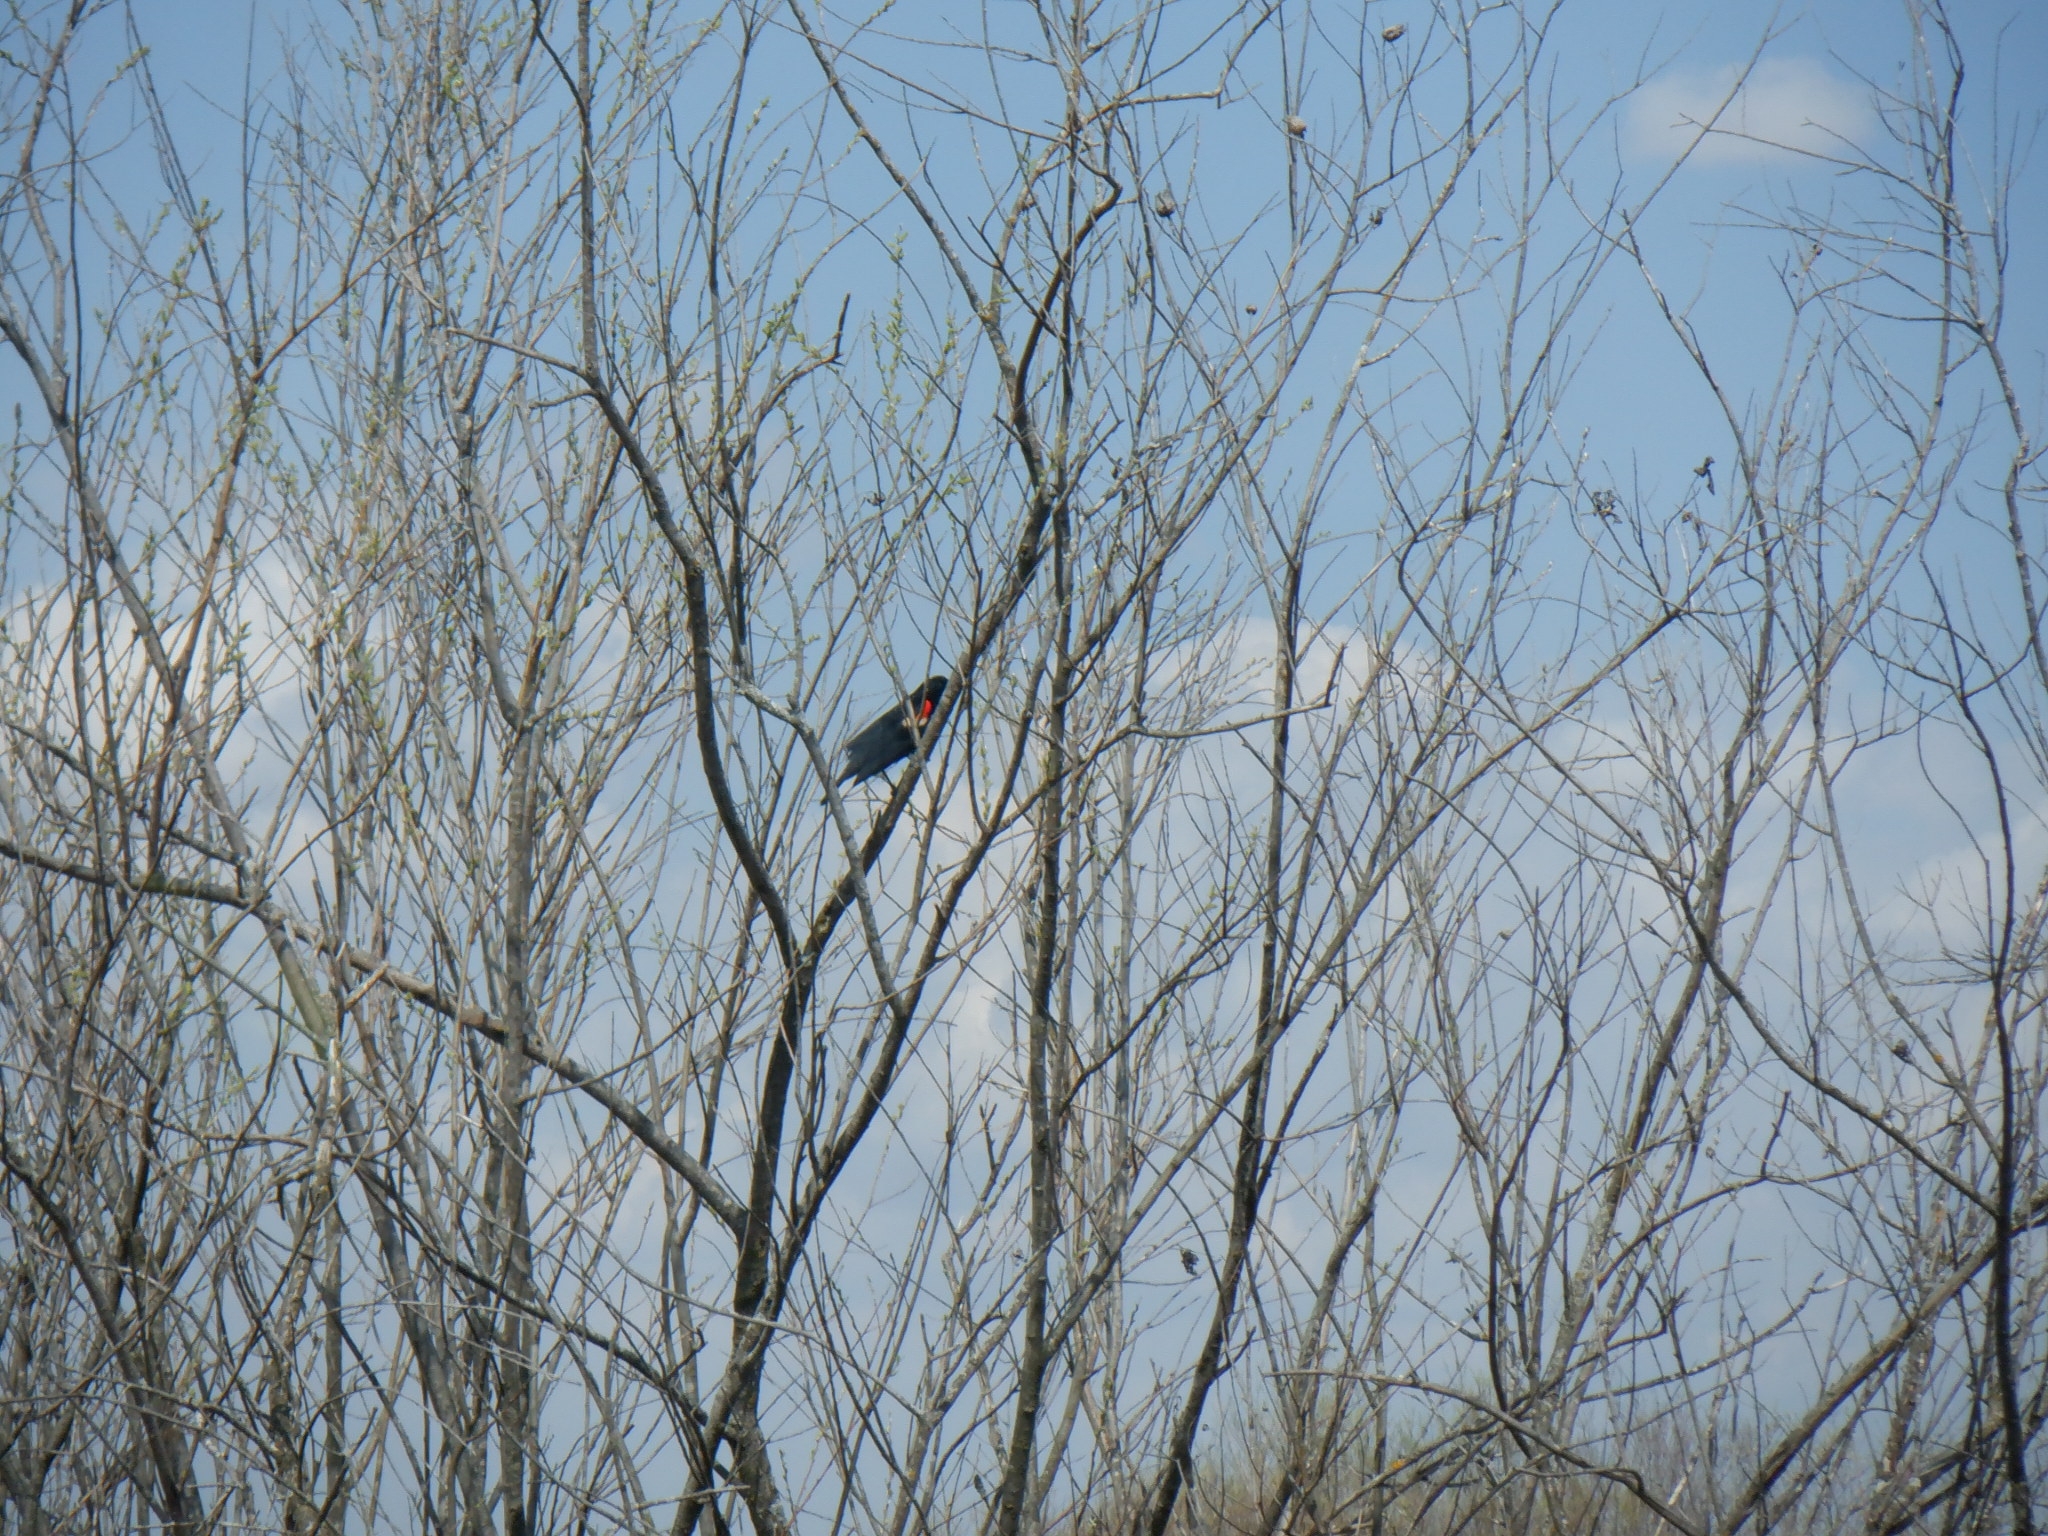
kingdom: Animalia
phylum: Chordata
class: Aves
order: Passeriformes
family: Icteridae
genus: Agelaius
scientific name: Agelaius phoeniceus
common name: Red-winged blackbird
